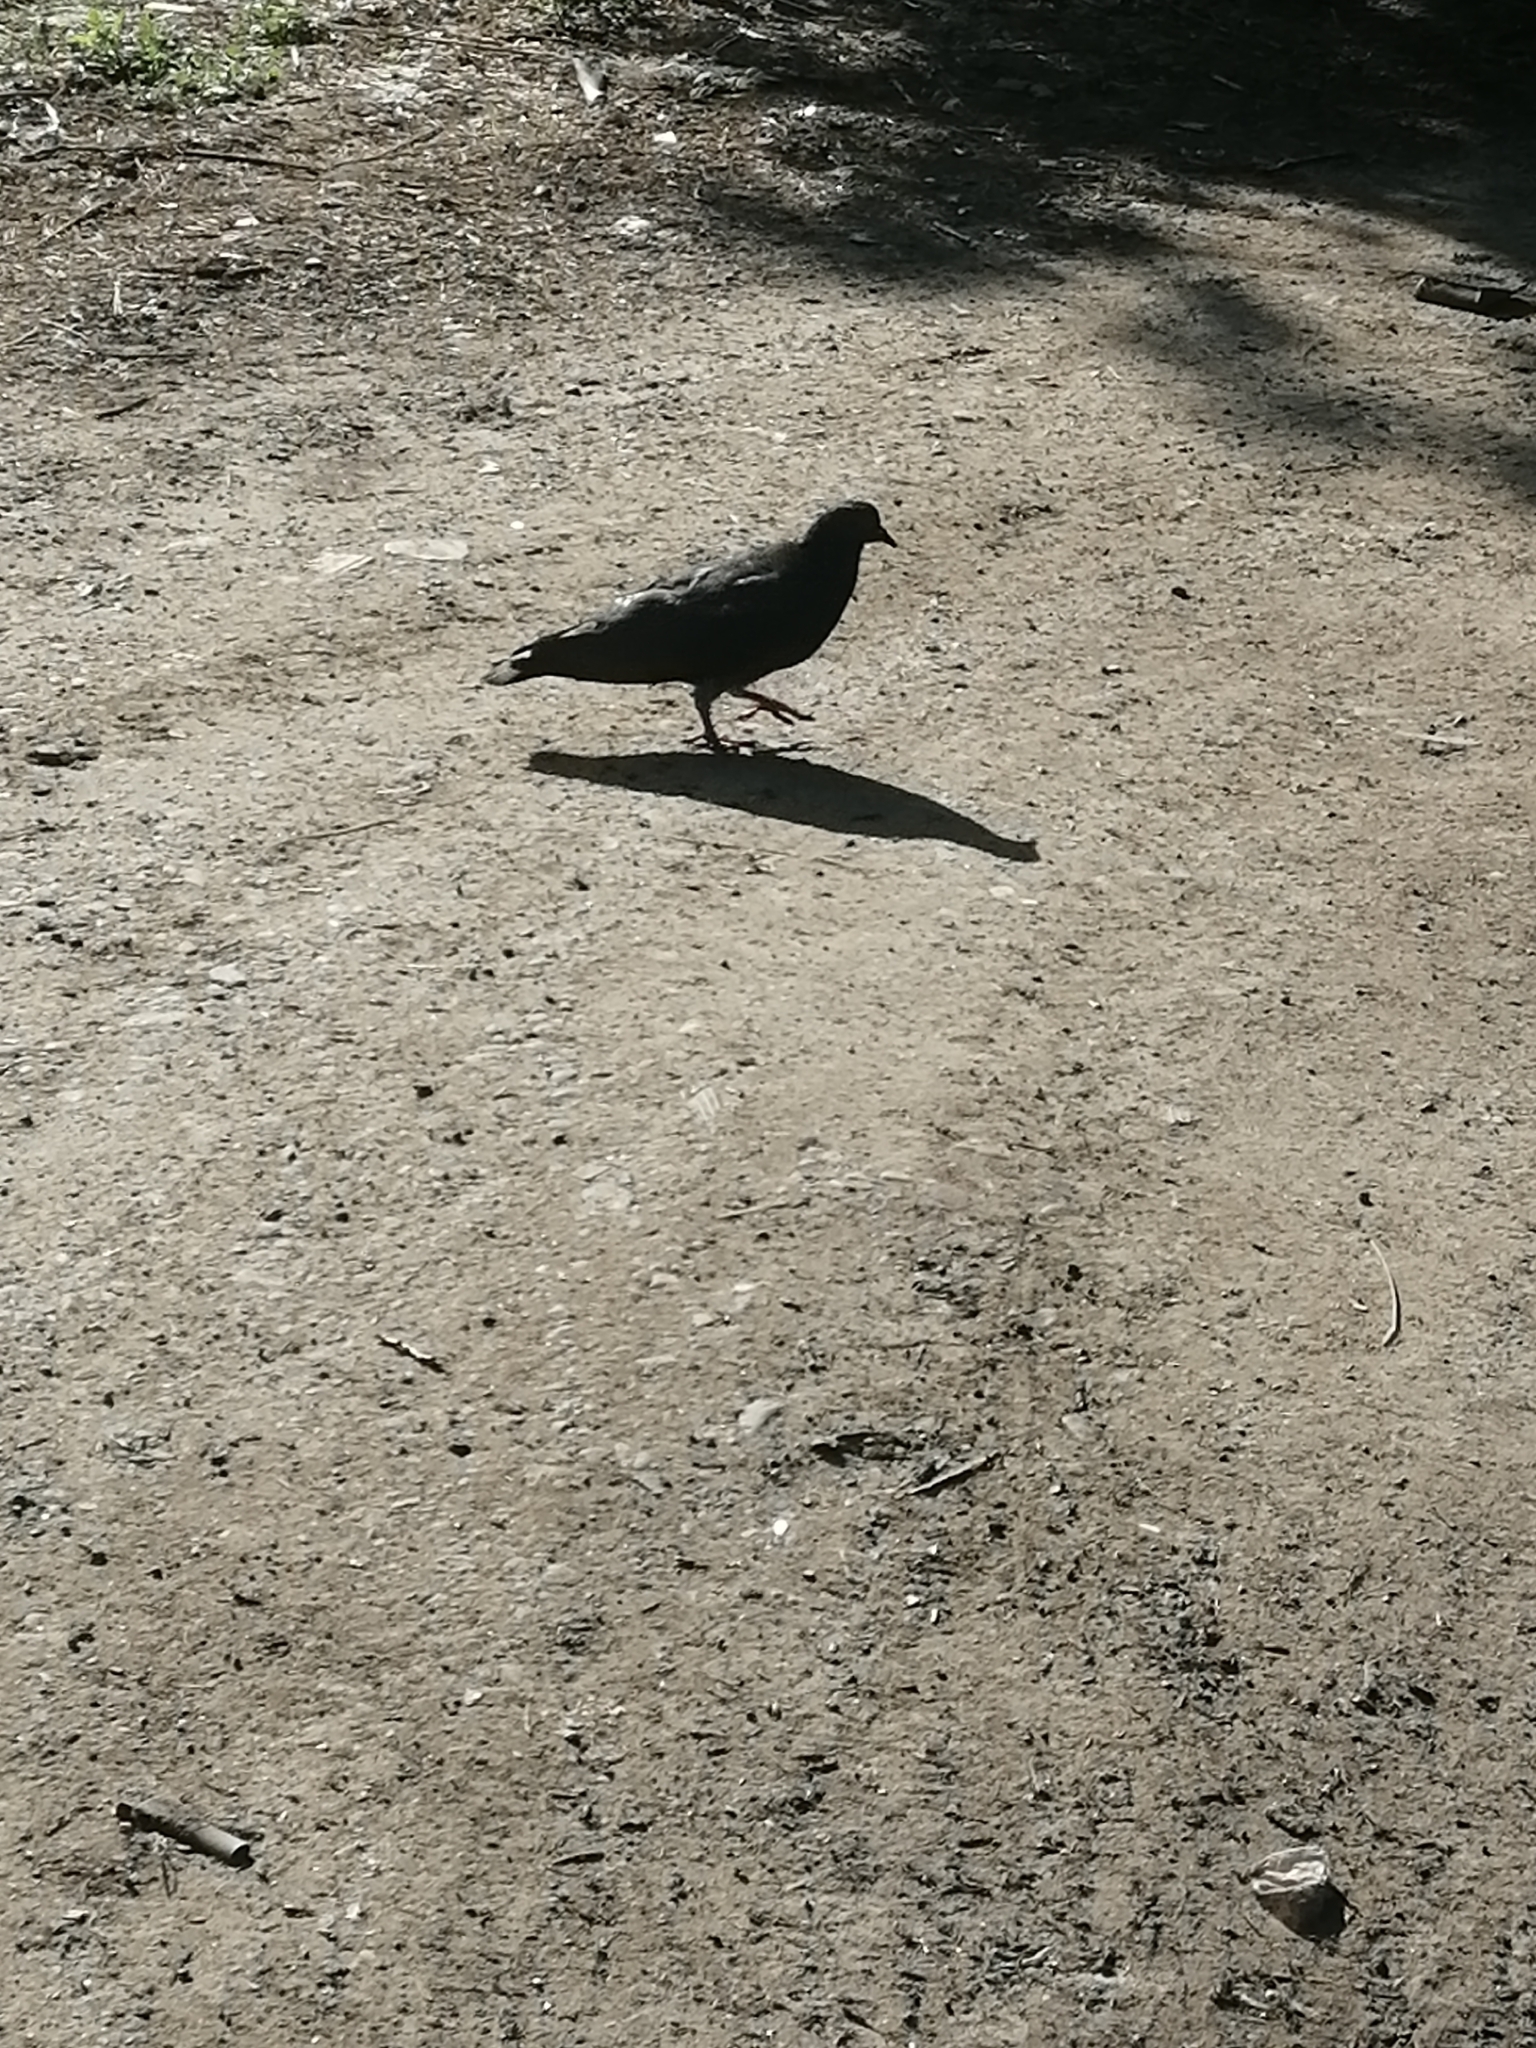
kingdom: Animalia
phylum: Chordata
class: Aves
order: Columbiformes
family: Columbidae
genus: Columba
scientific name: Columba livia
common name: Rock pigeon
